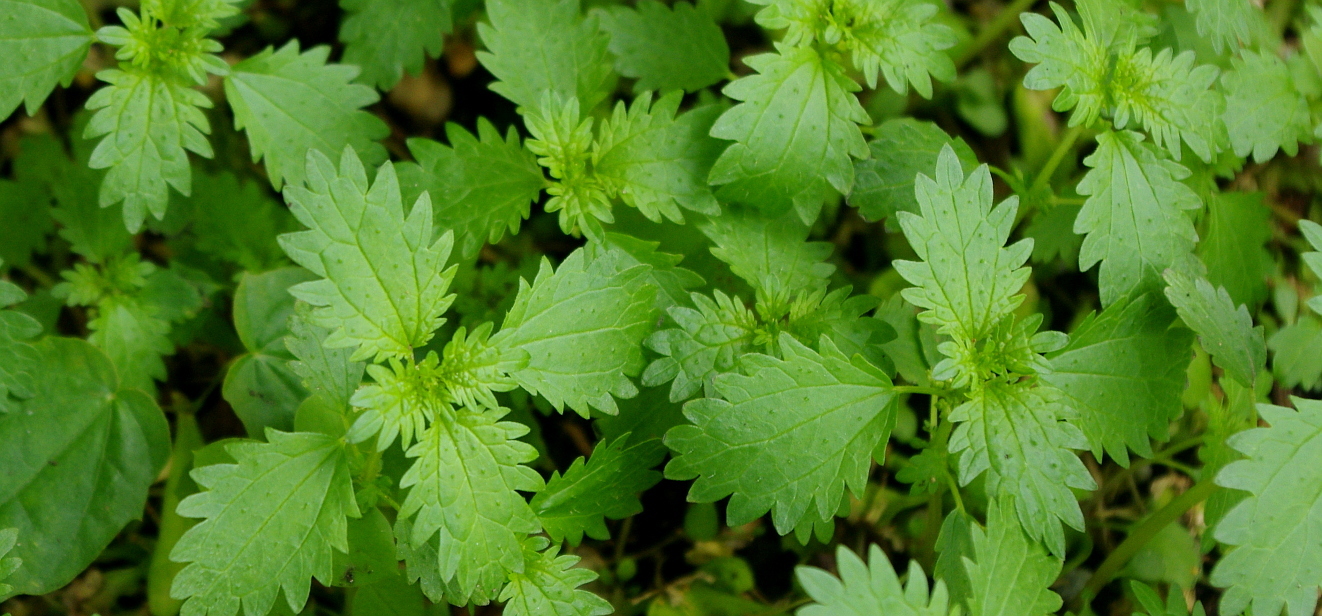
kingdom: Plantae
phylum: Tracheophyta
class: Magnoliopsida
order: Rosales
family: Urticaceae
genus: Urtica
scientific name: Urtica urens
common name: Dwarf nettle
